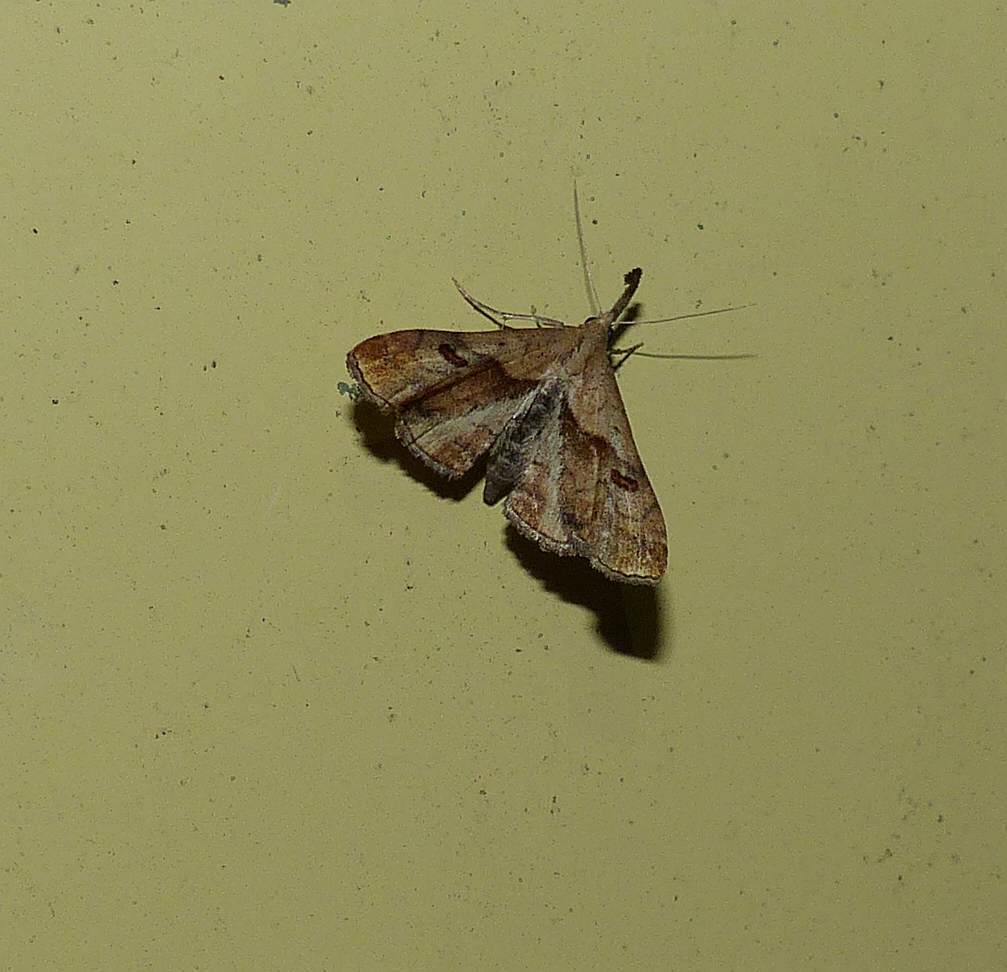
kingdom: Animalia
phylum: Arthropoda
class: Insecta
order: Lepidoptera
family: Erebidae
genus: Palthis
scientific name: Palthis angulalis
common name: Dark-spotted palthis moth
